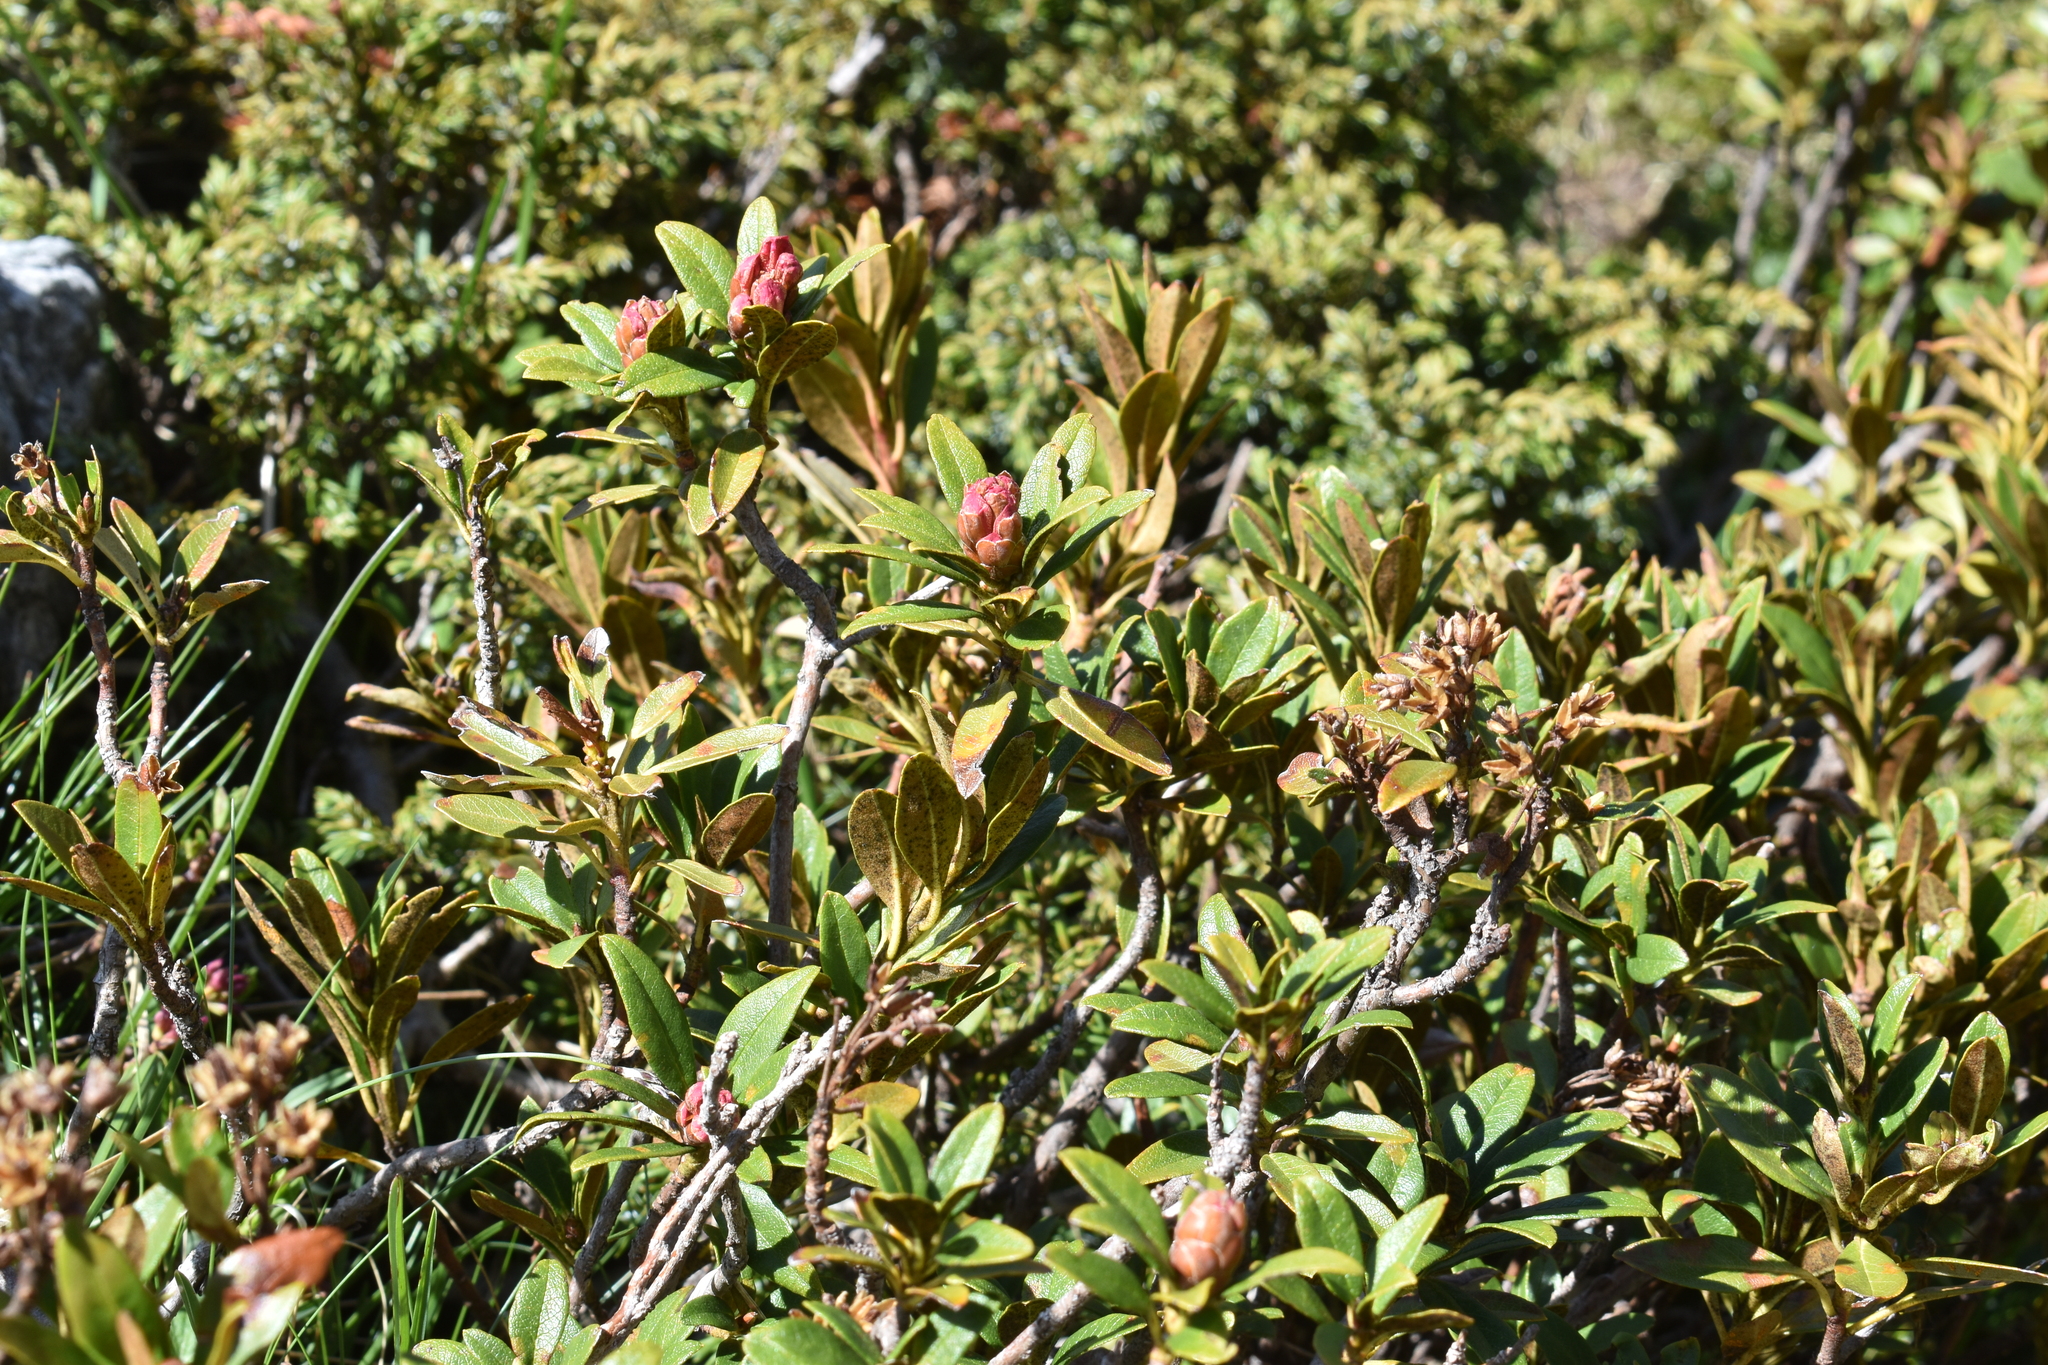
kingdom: Plantae
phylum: Tracheophyta
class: Magnoliopsida
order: Ericales
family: Ericaceae
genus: Rhododendron
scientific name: Rhododendron ferrugineum
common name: Alpenrose
